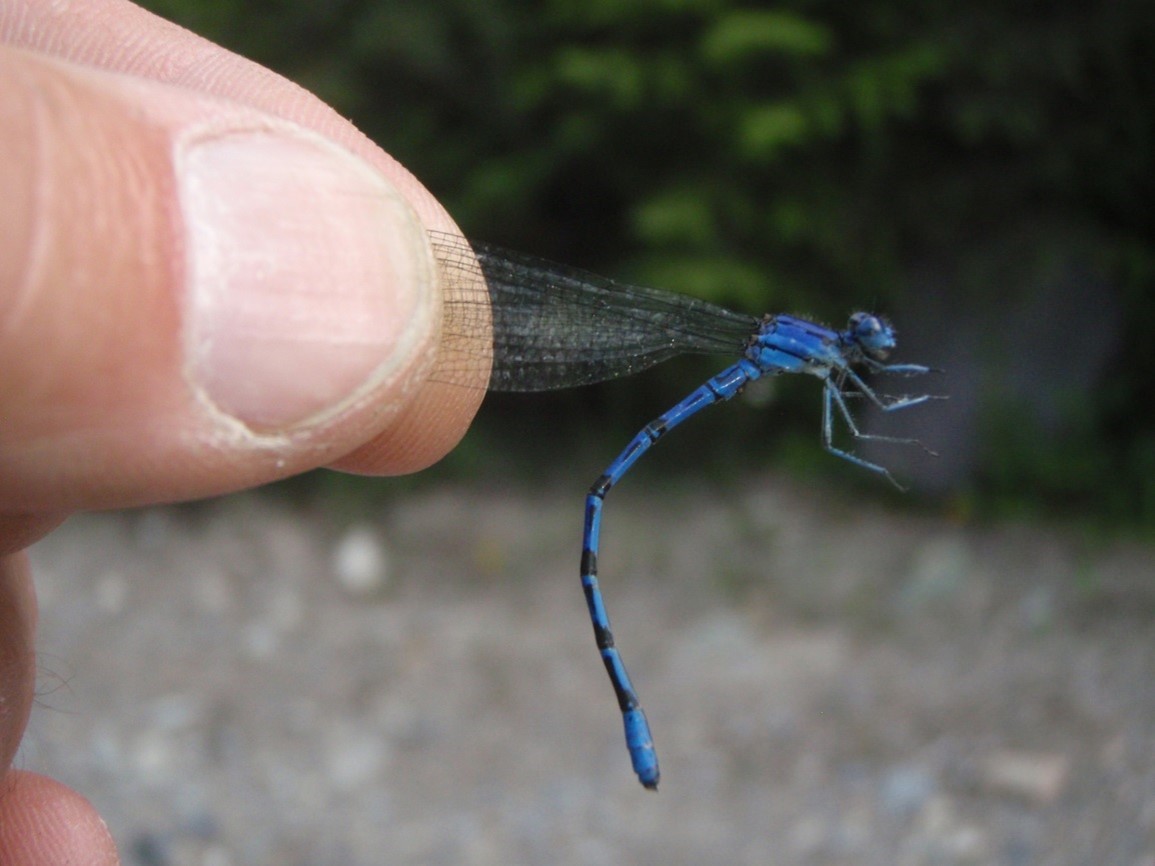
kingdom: Animalia
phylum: Arthropoda
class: Insecta
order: Odonata
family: Coenagrionidae
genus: Argia
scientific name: Argia vivida
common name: Vivid dancer
